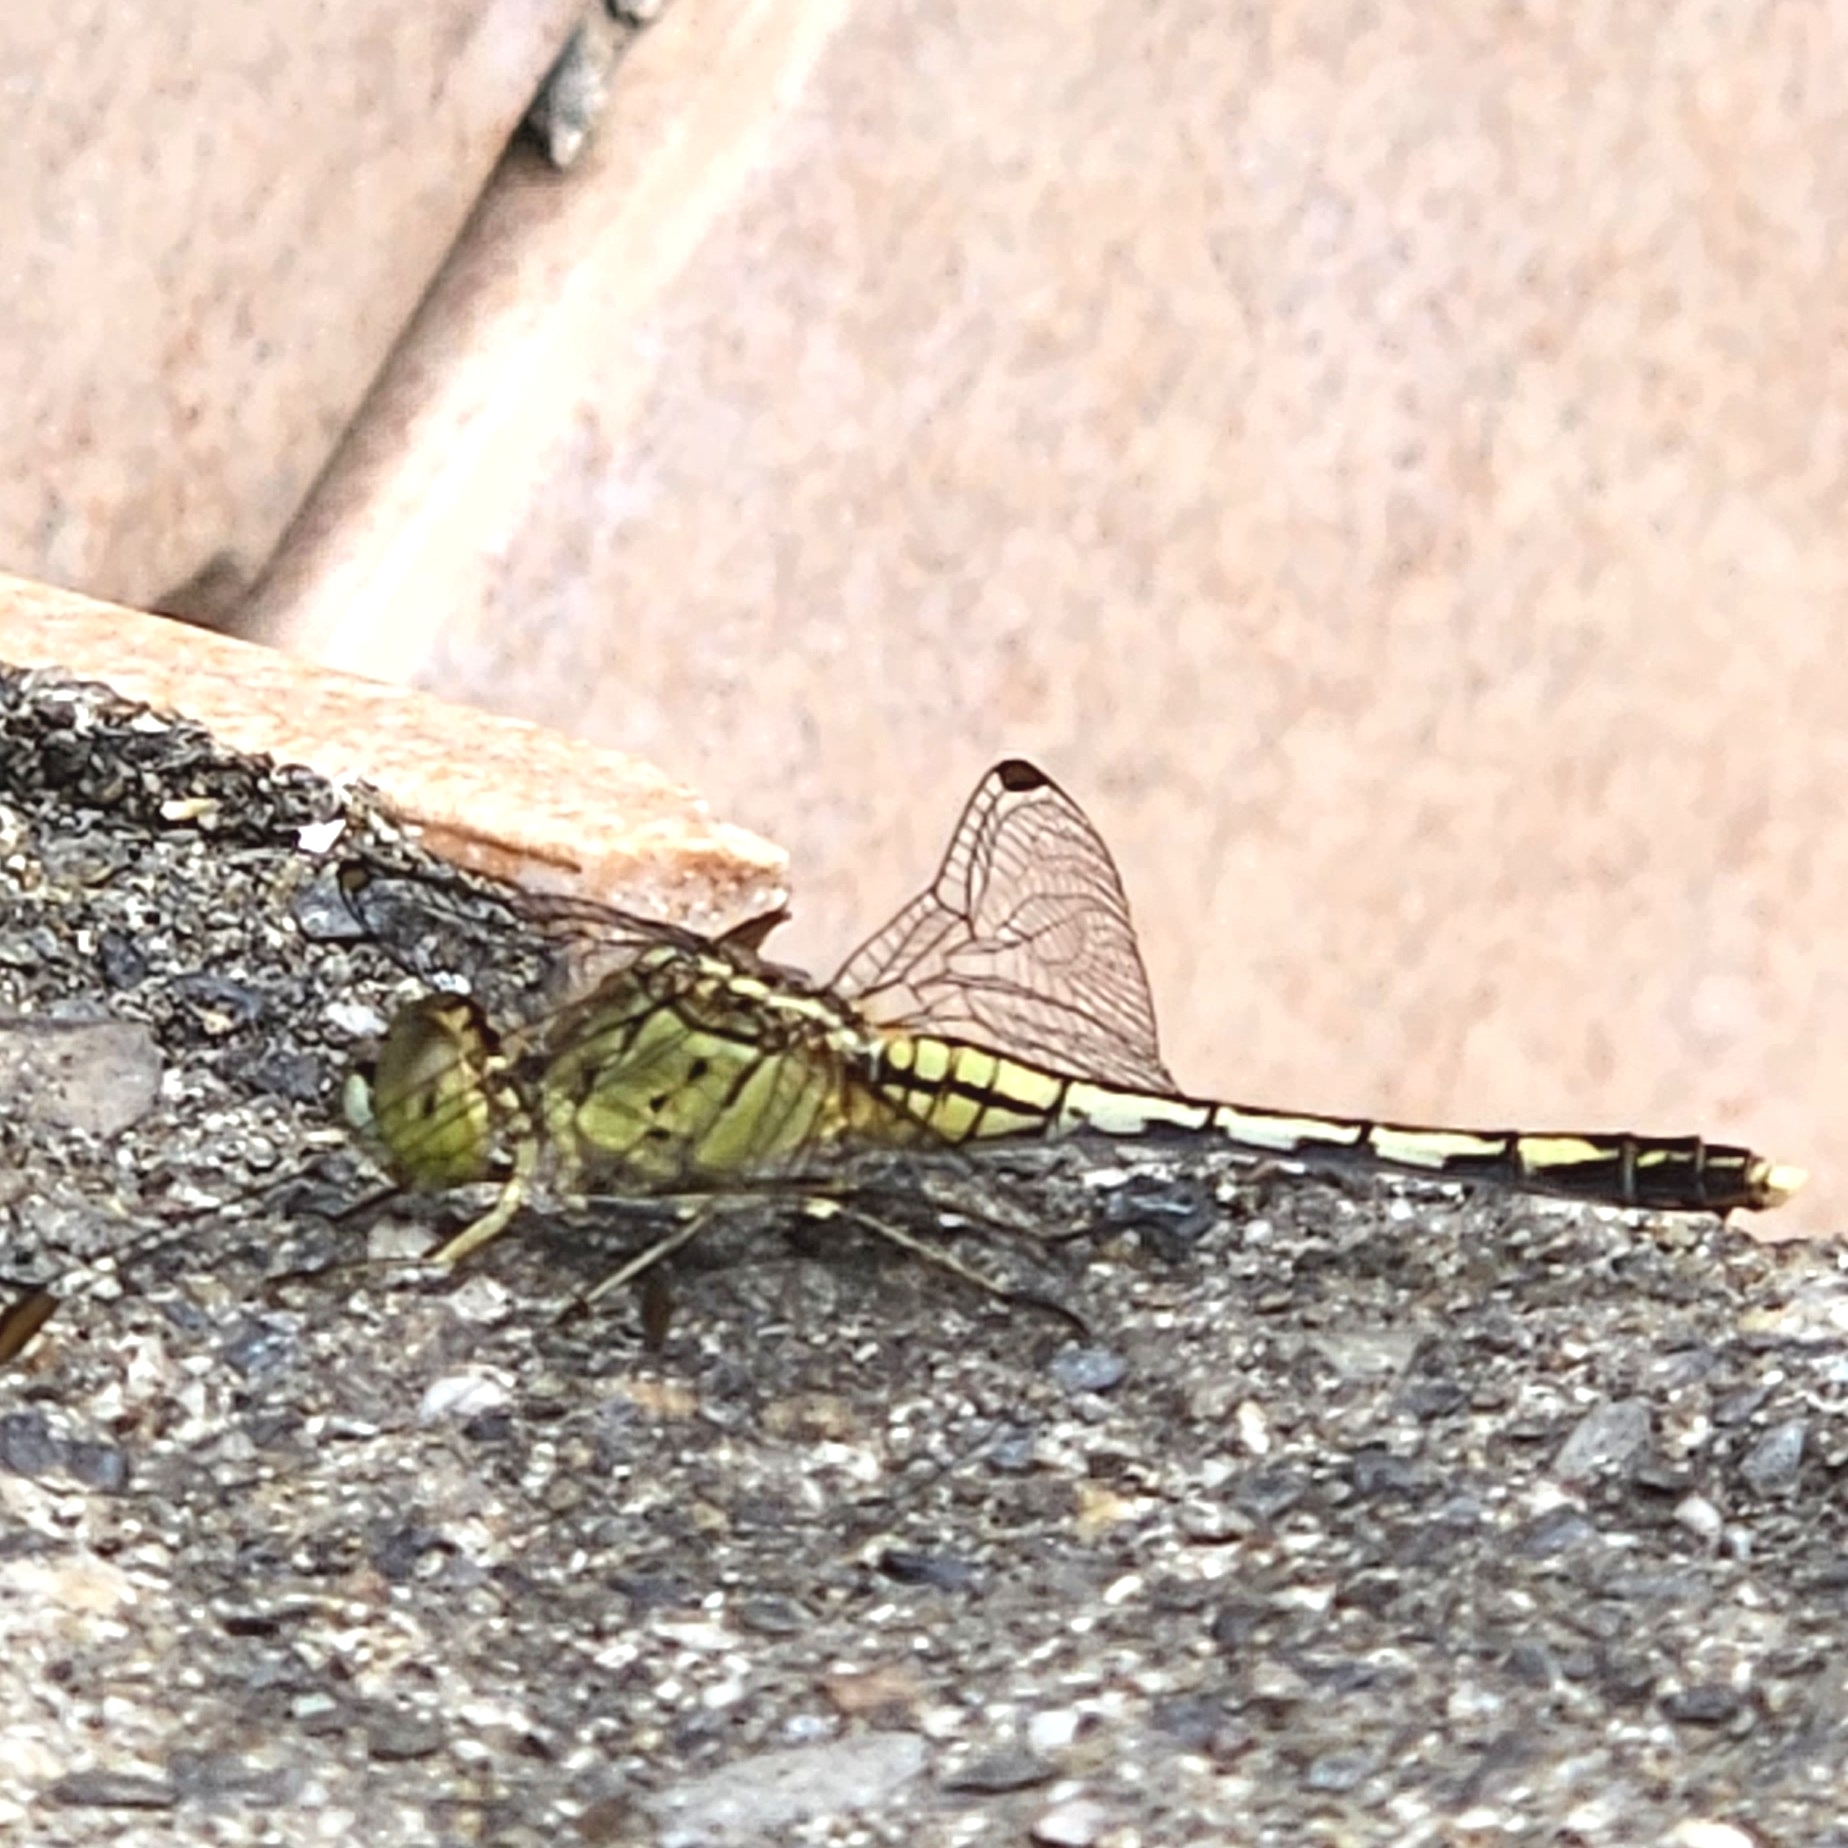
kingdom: Animalia
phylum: Arthropoda
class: Insecta
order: Odonata
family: Libellulidae
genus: Diplacodes
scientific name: Diplacodes trivialis
